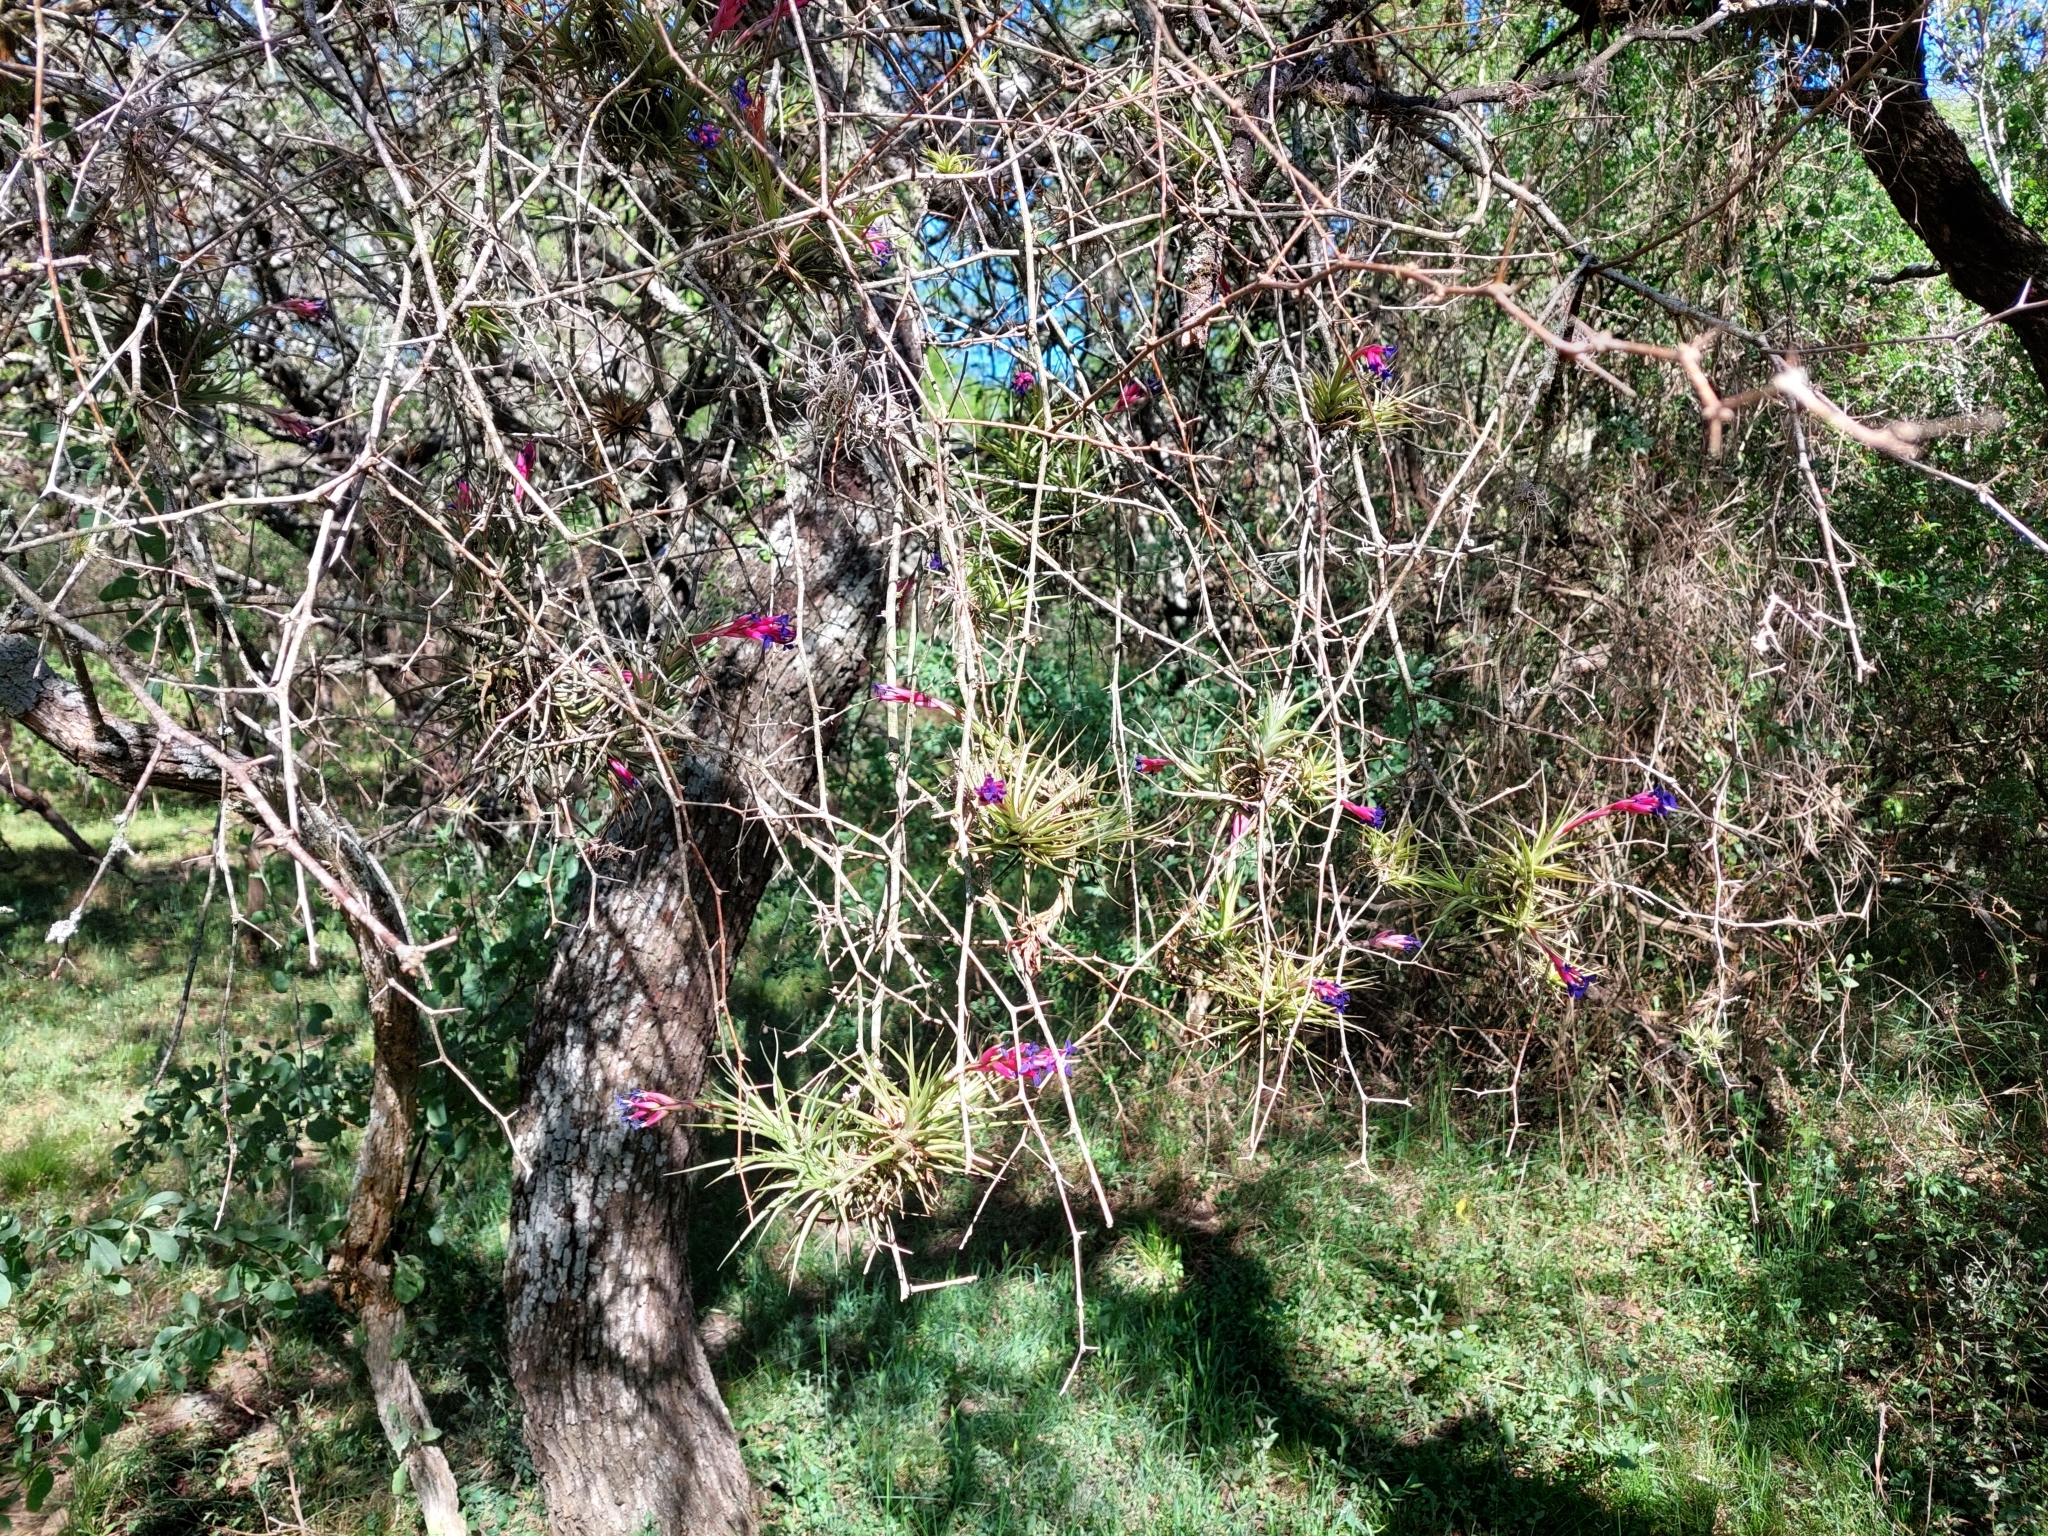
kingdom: Plantae
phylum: Tracheophyta
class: Liliopsida
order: Poales
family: Bromeliaceae
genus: Tillandsia
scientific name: Tillandsia aeranthos
